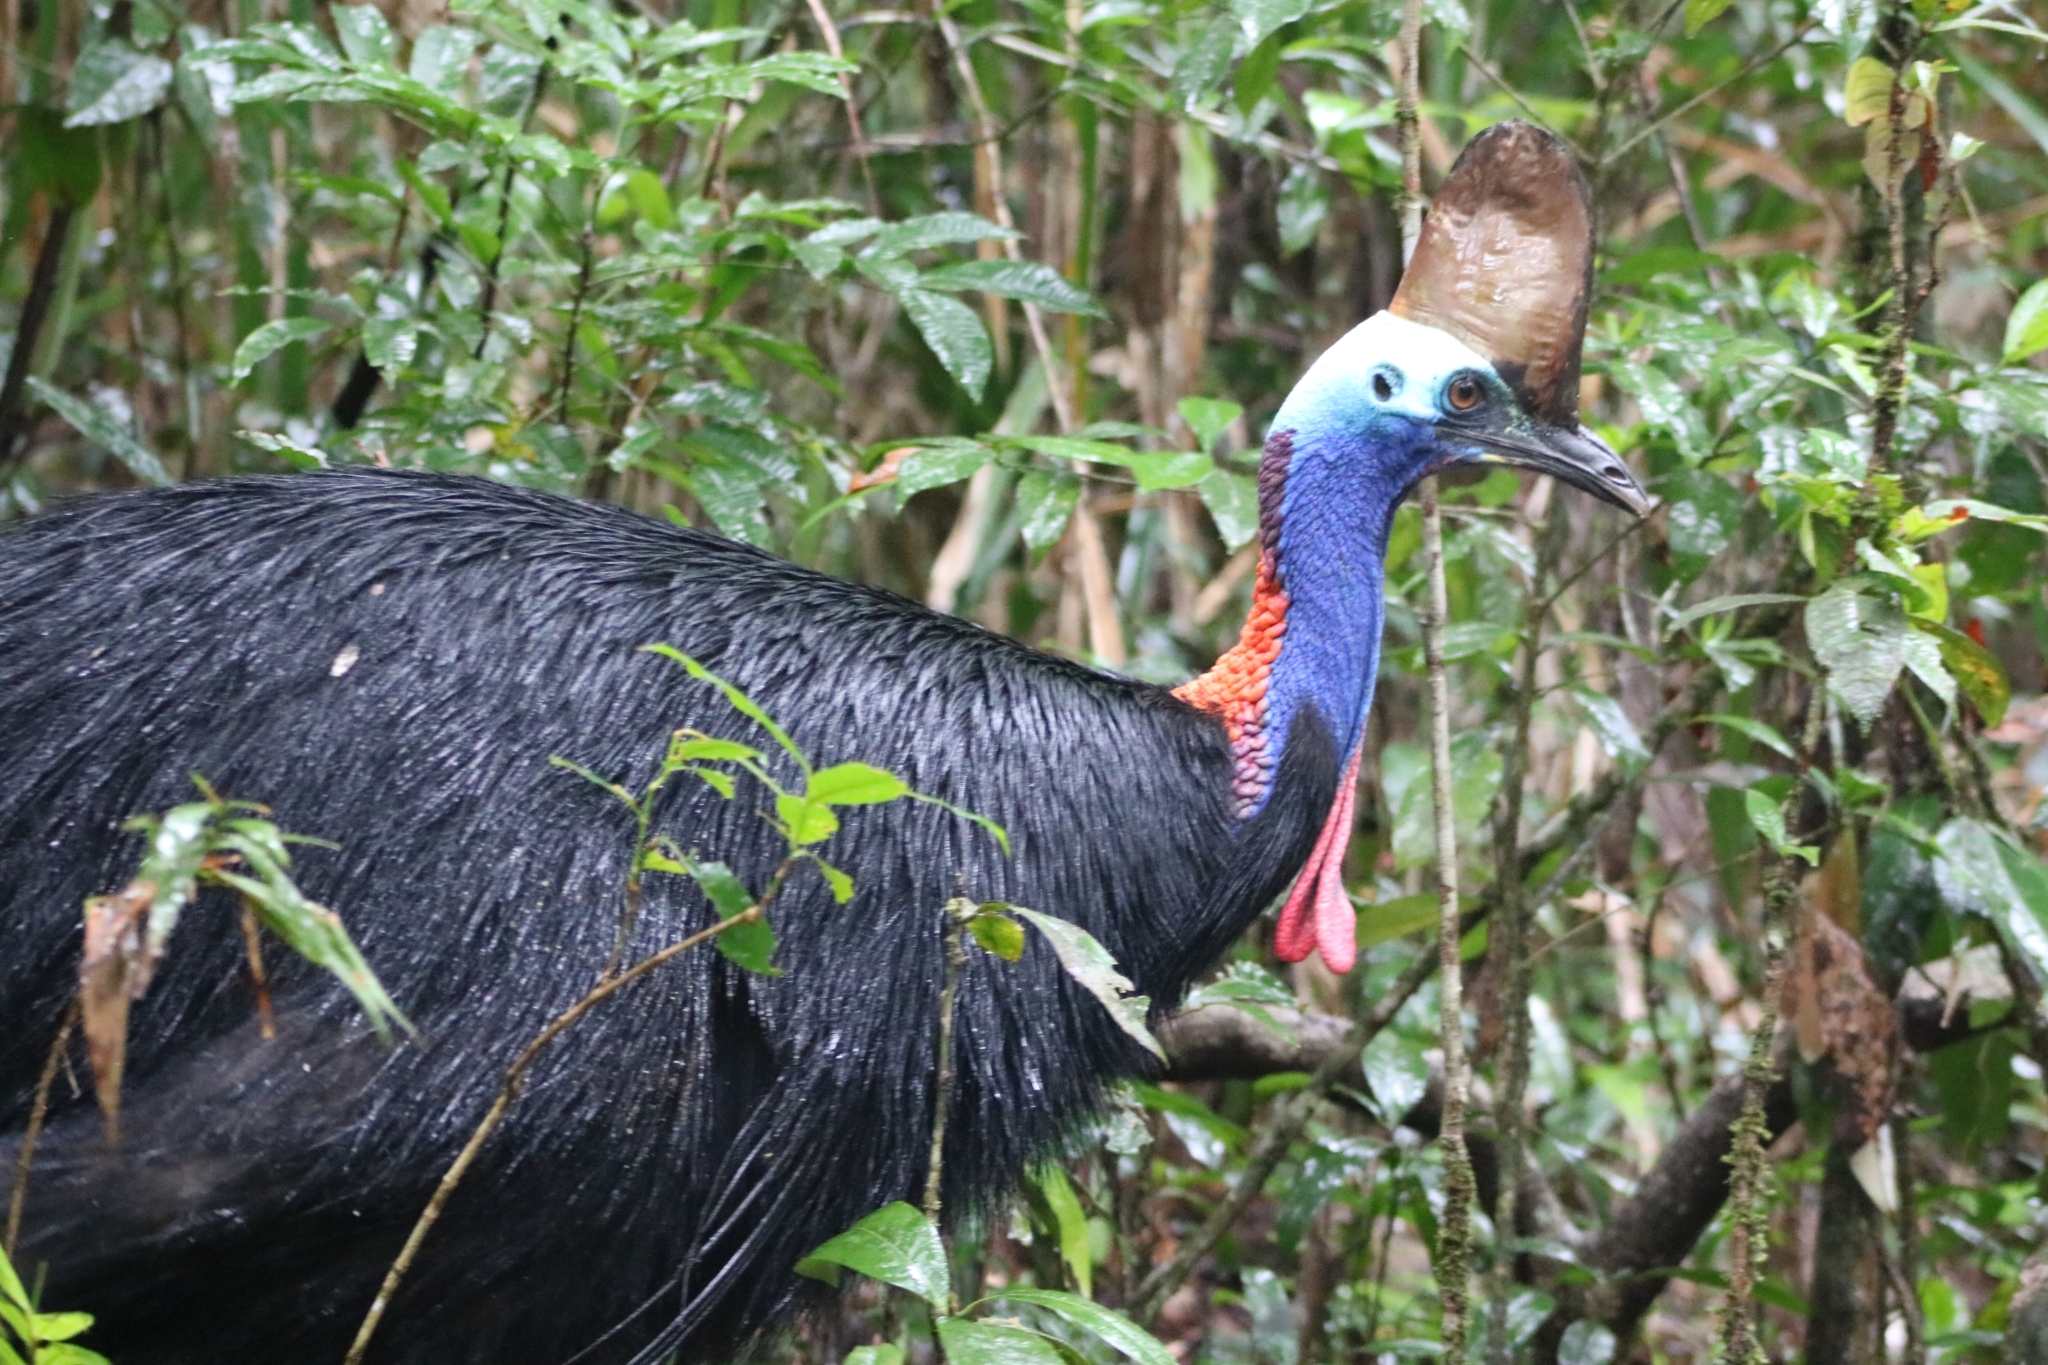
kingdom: Animalia
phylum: Chordata
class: Aves
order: Casuariiformes
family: Casuariidae
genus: Casuarius
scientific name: Casuarius casuarius
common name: Southern cassowary
